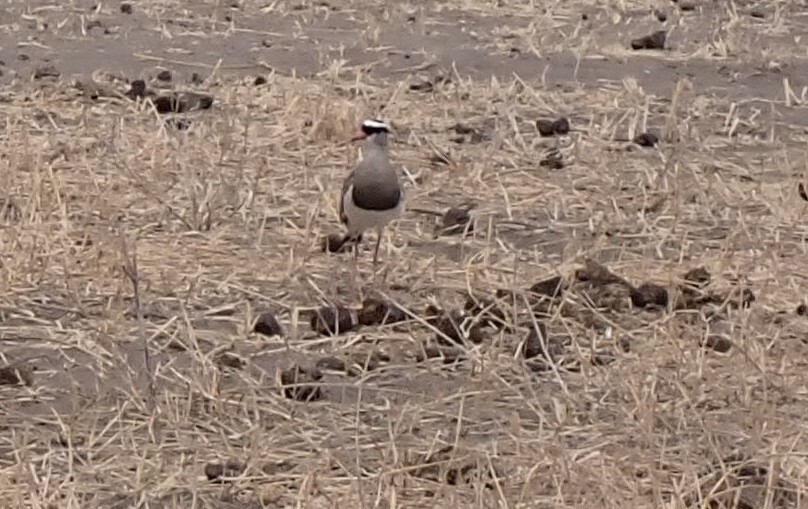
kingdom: Animalia
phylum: Chordata
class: Aves
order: Charadriiformes
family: Charadriidae
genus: Vanellus
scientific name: Vanellus coronatus
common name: Crowned lapwing
